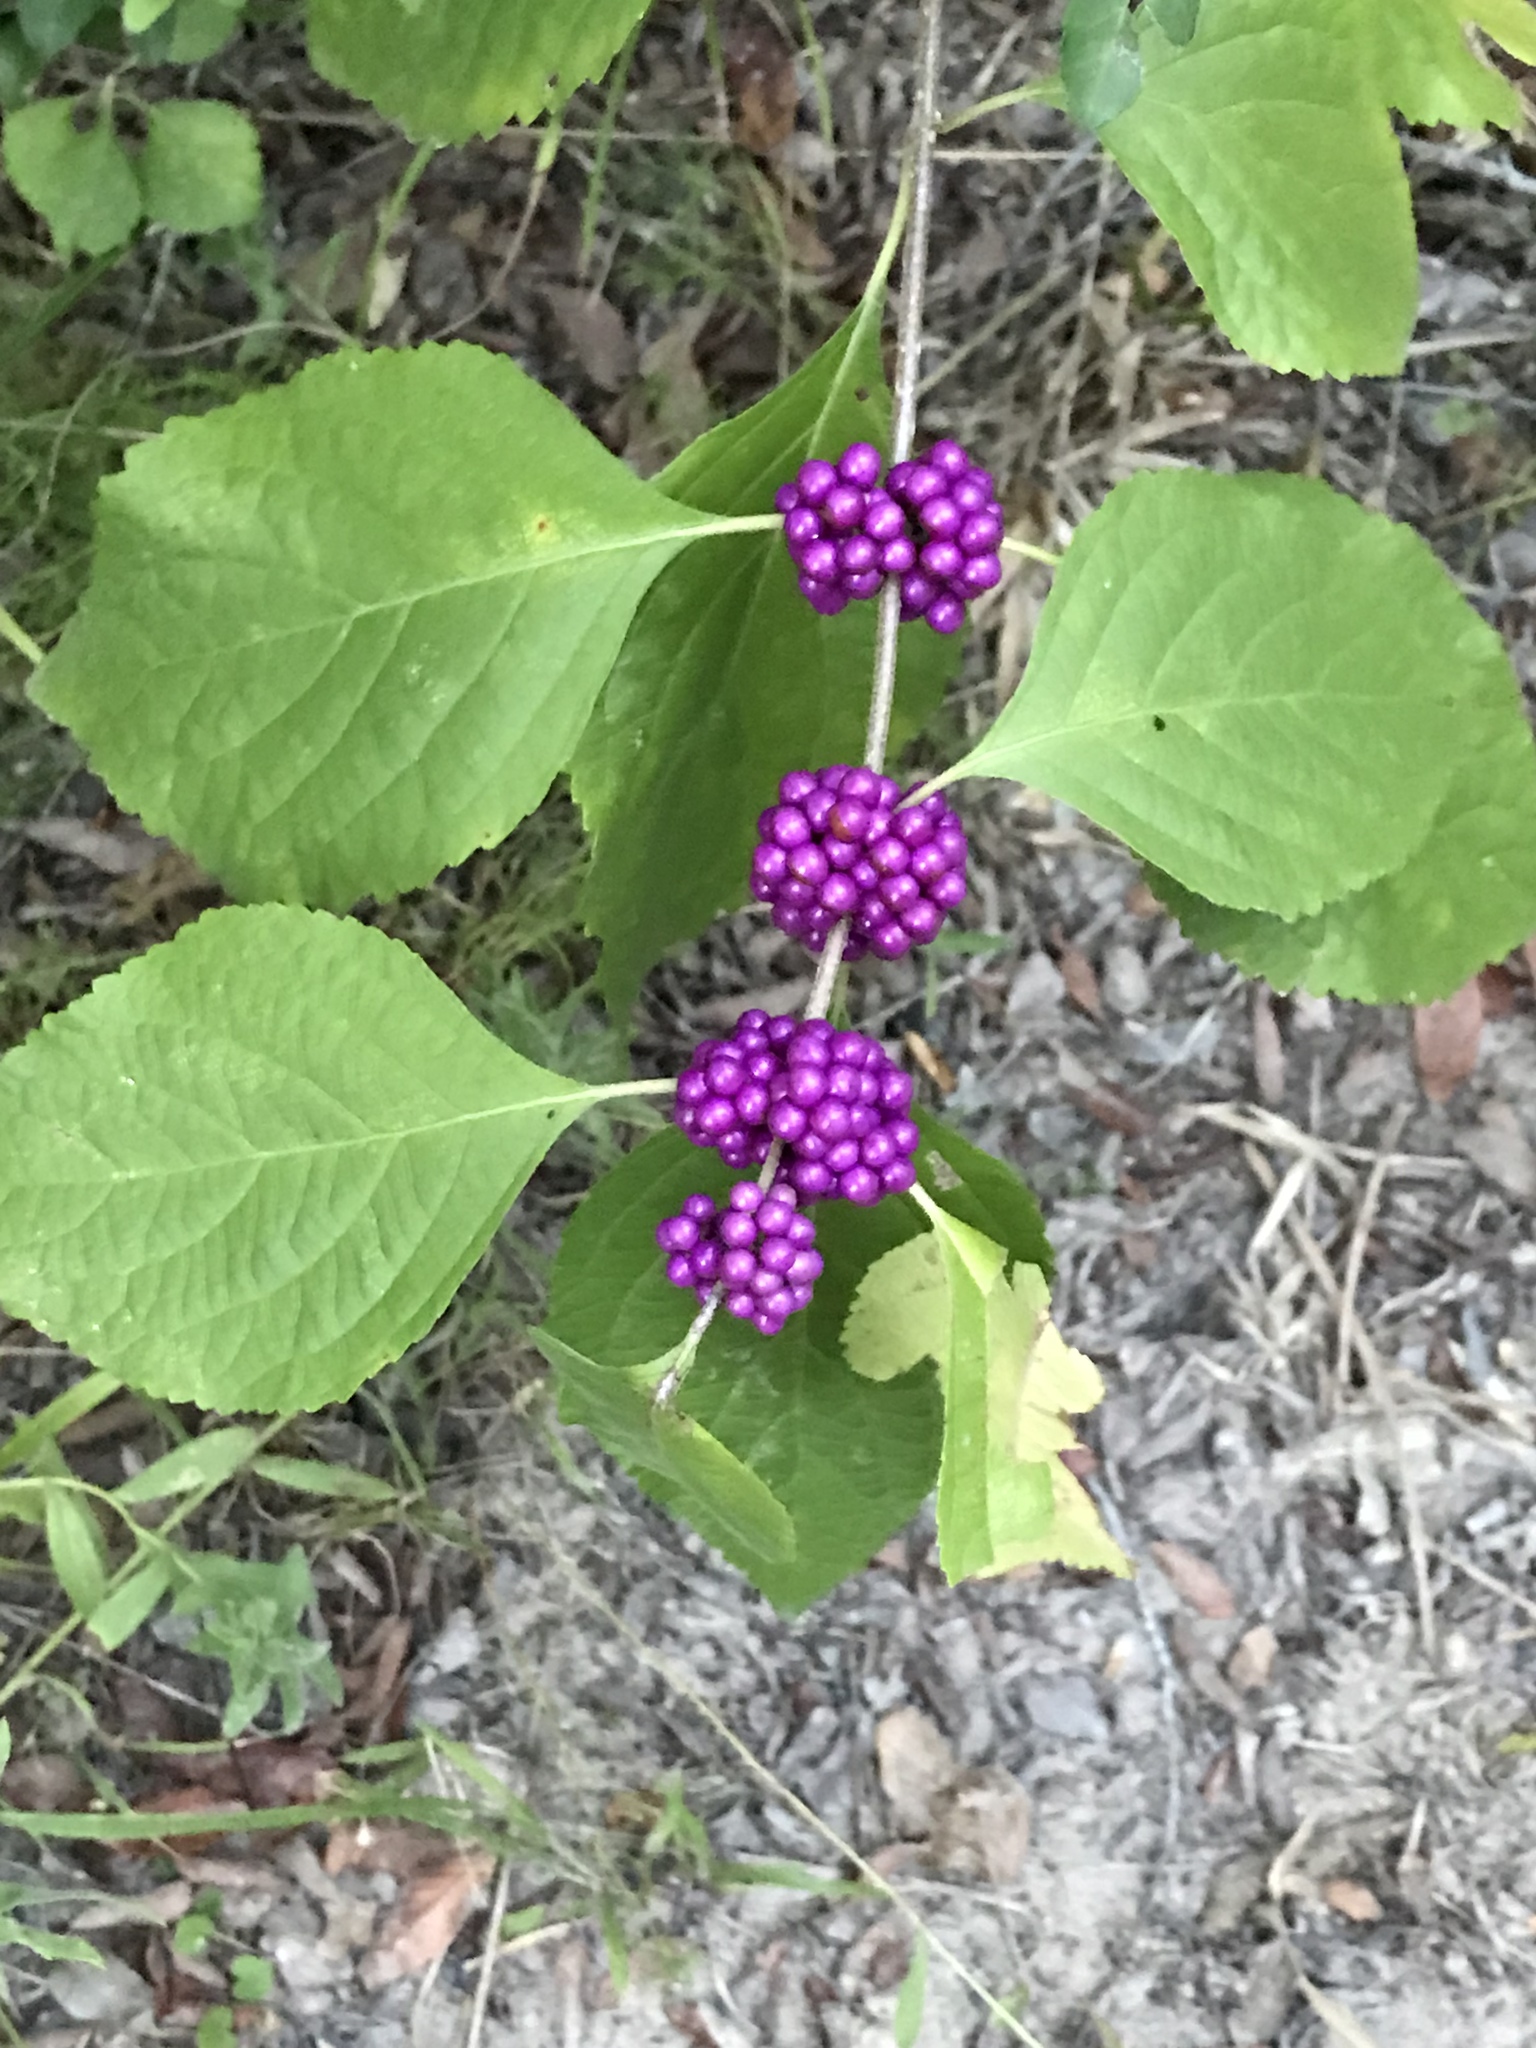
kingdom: Plantae
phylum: Tracheophyta
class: Magnoliopsida
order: Lamiales
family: Lamiaceae
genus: Callicarpa
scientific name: Callicarpa americana
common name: American beautyberry
